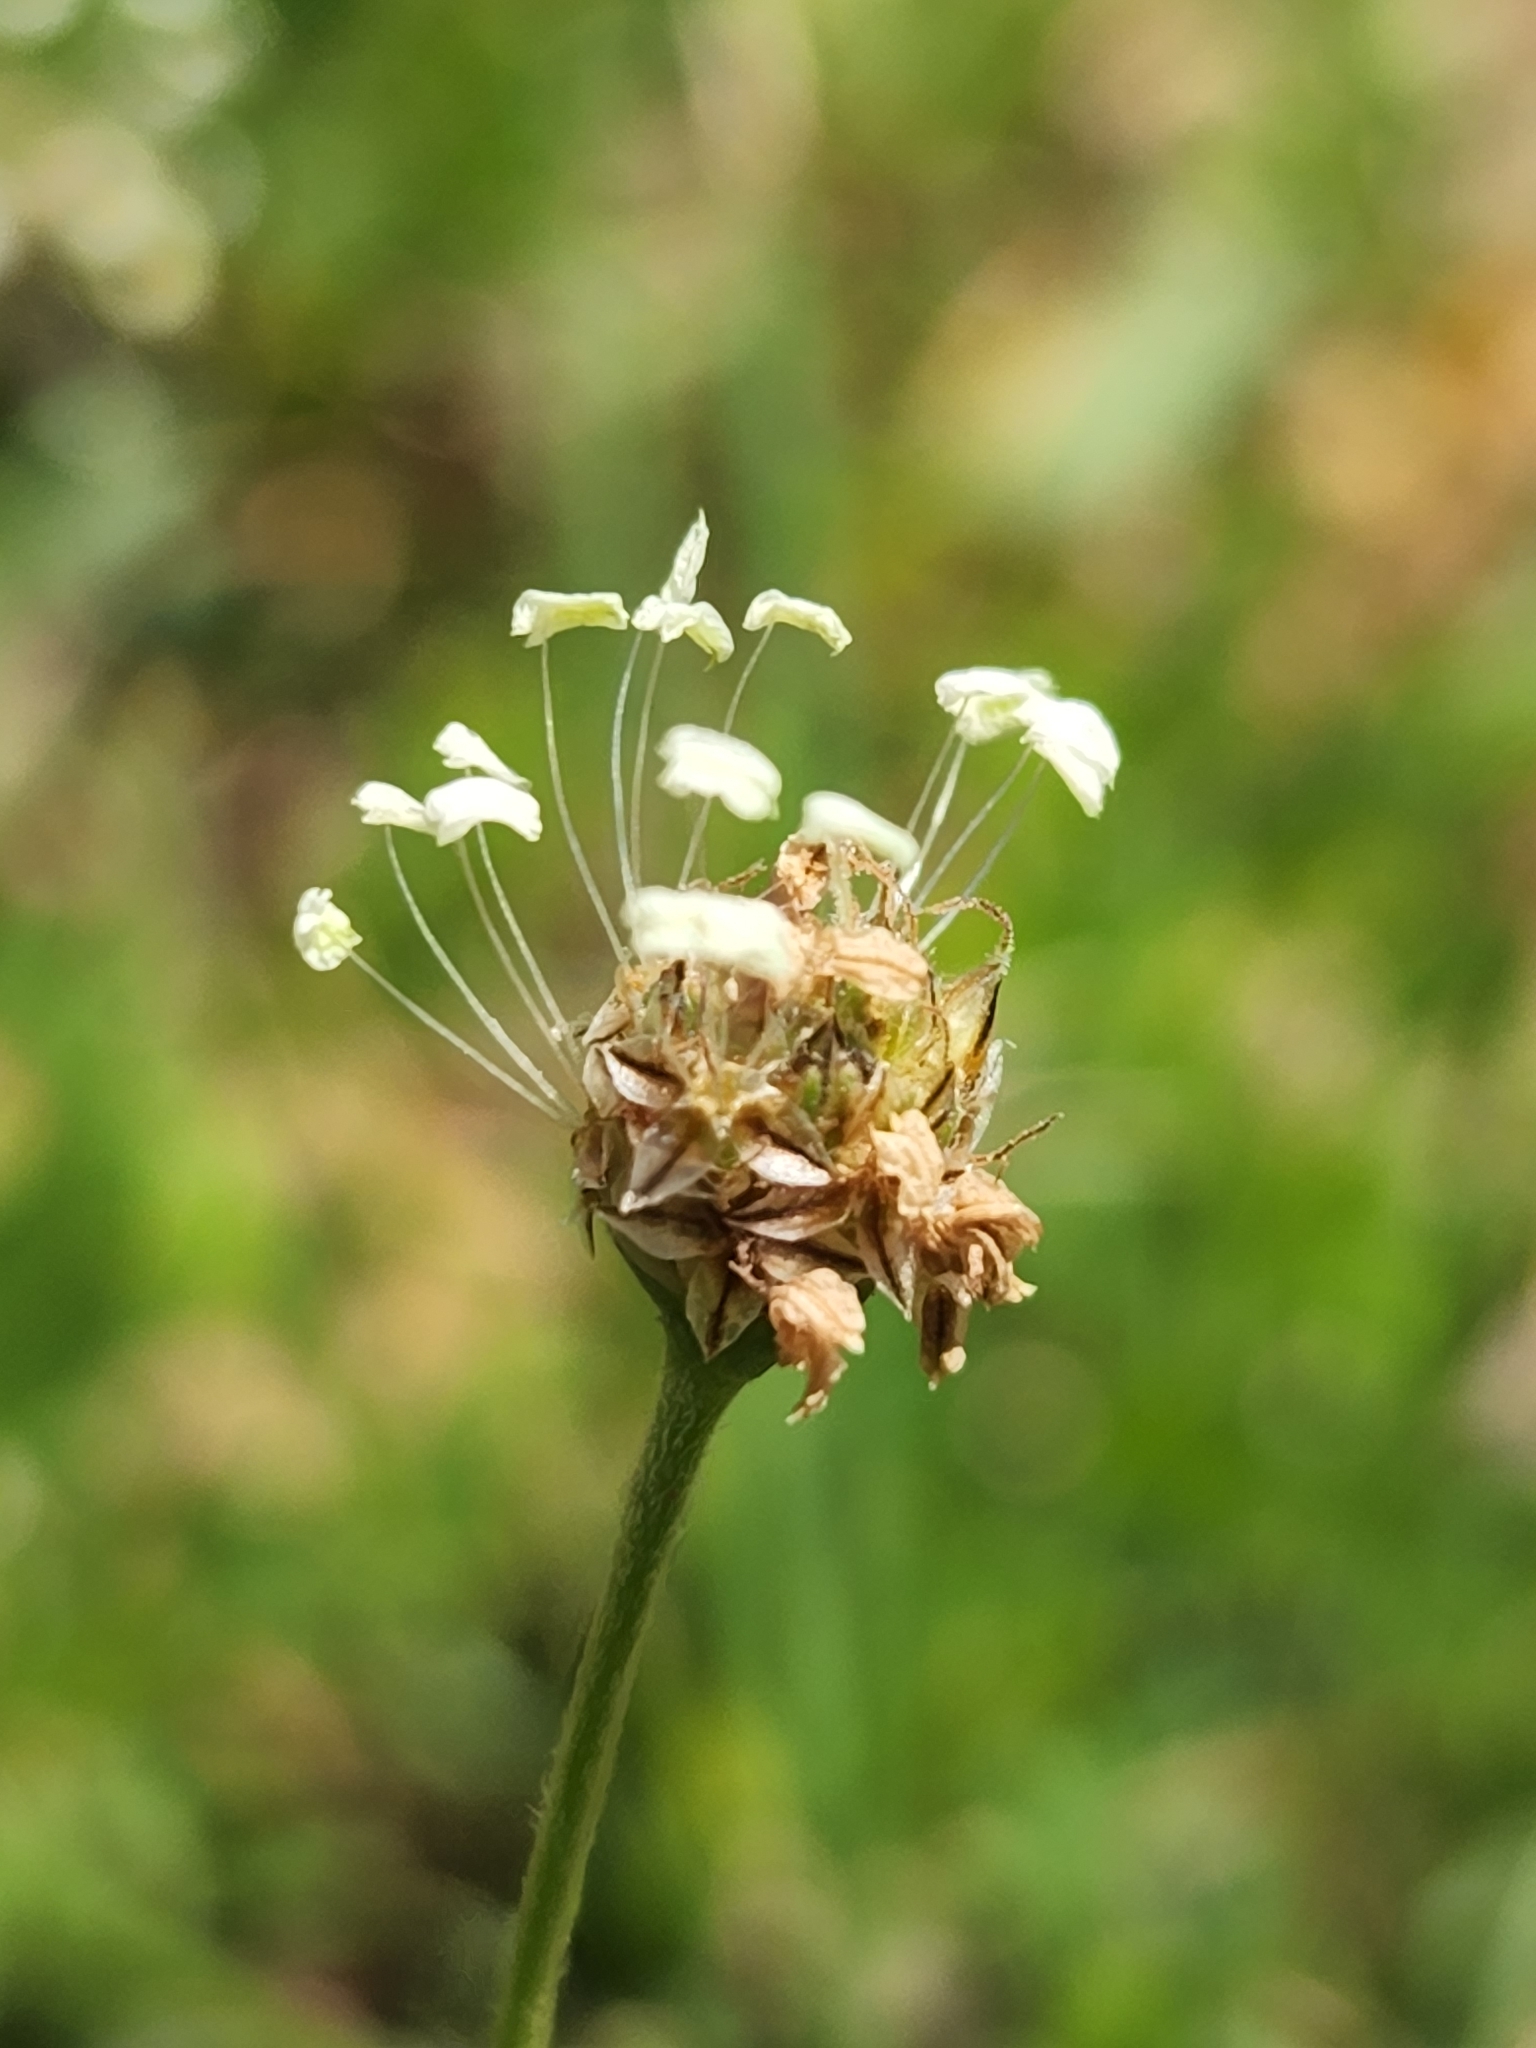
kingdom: Plantae
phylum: Tracheophyta
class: Magnoliopsida
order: Lamiales
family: Plantaginaceae
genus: Plantago
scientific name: Plantago lanceolata
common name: Ribwort plantain
